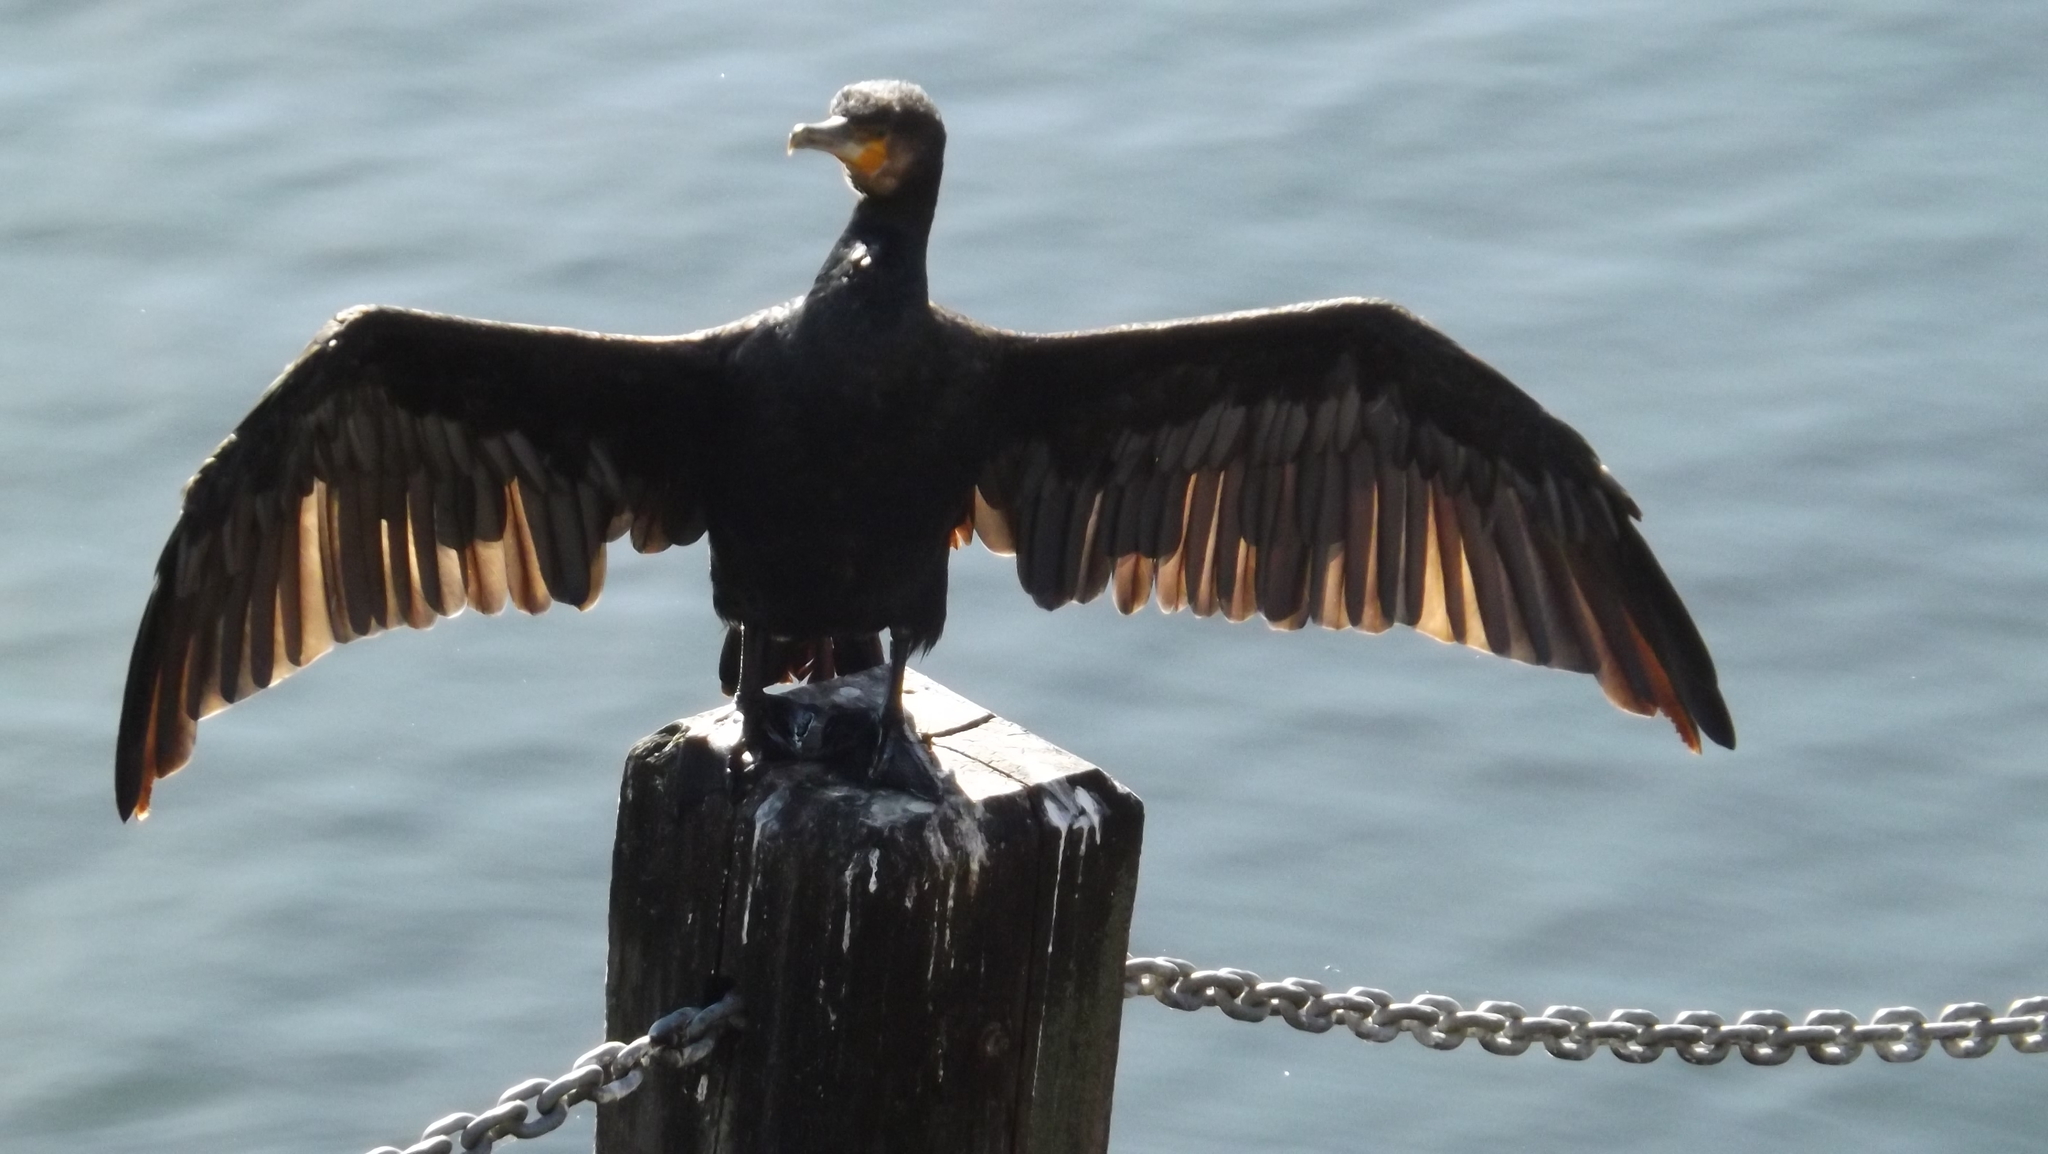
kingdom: Animalia
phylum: Chordata
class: Aves
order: Suliformes
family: Phalacrocoracidae
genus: Phalacrocorax
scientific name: Phalacrocorax carbo
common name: Great cormorant
